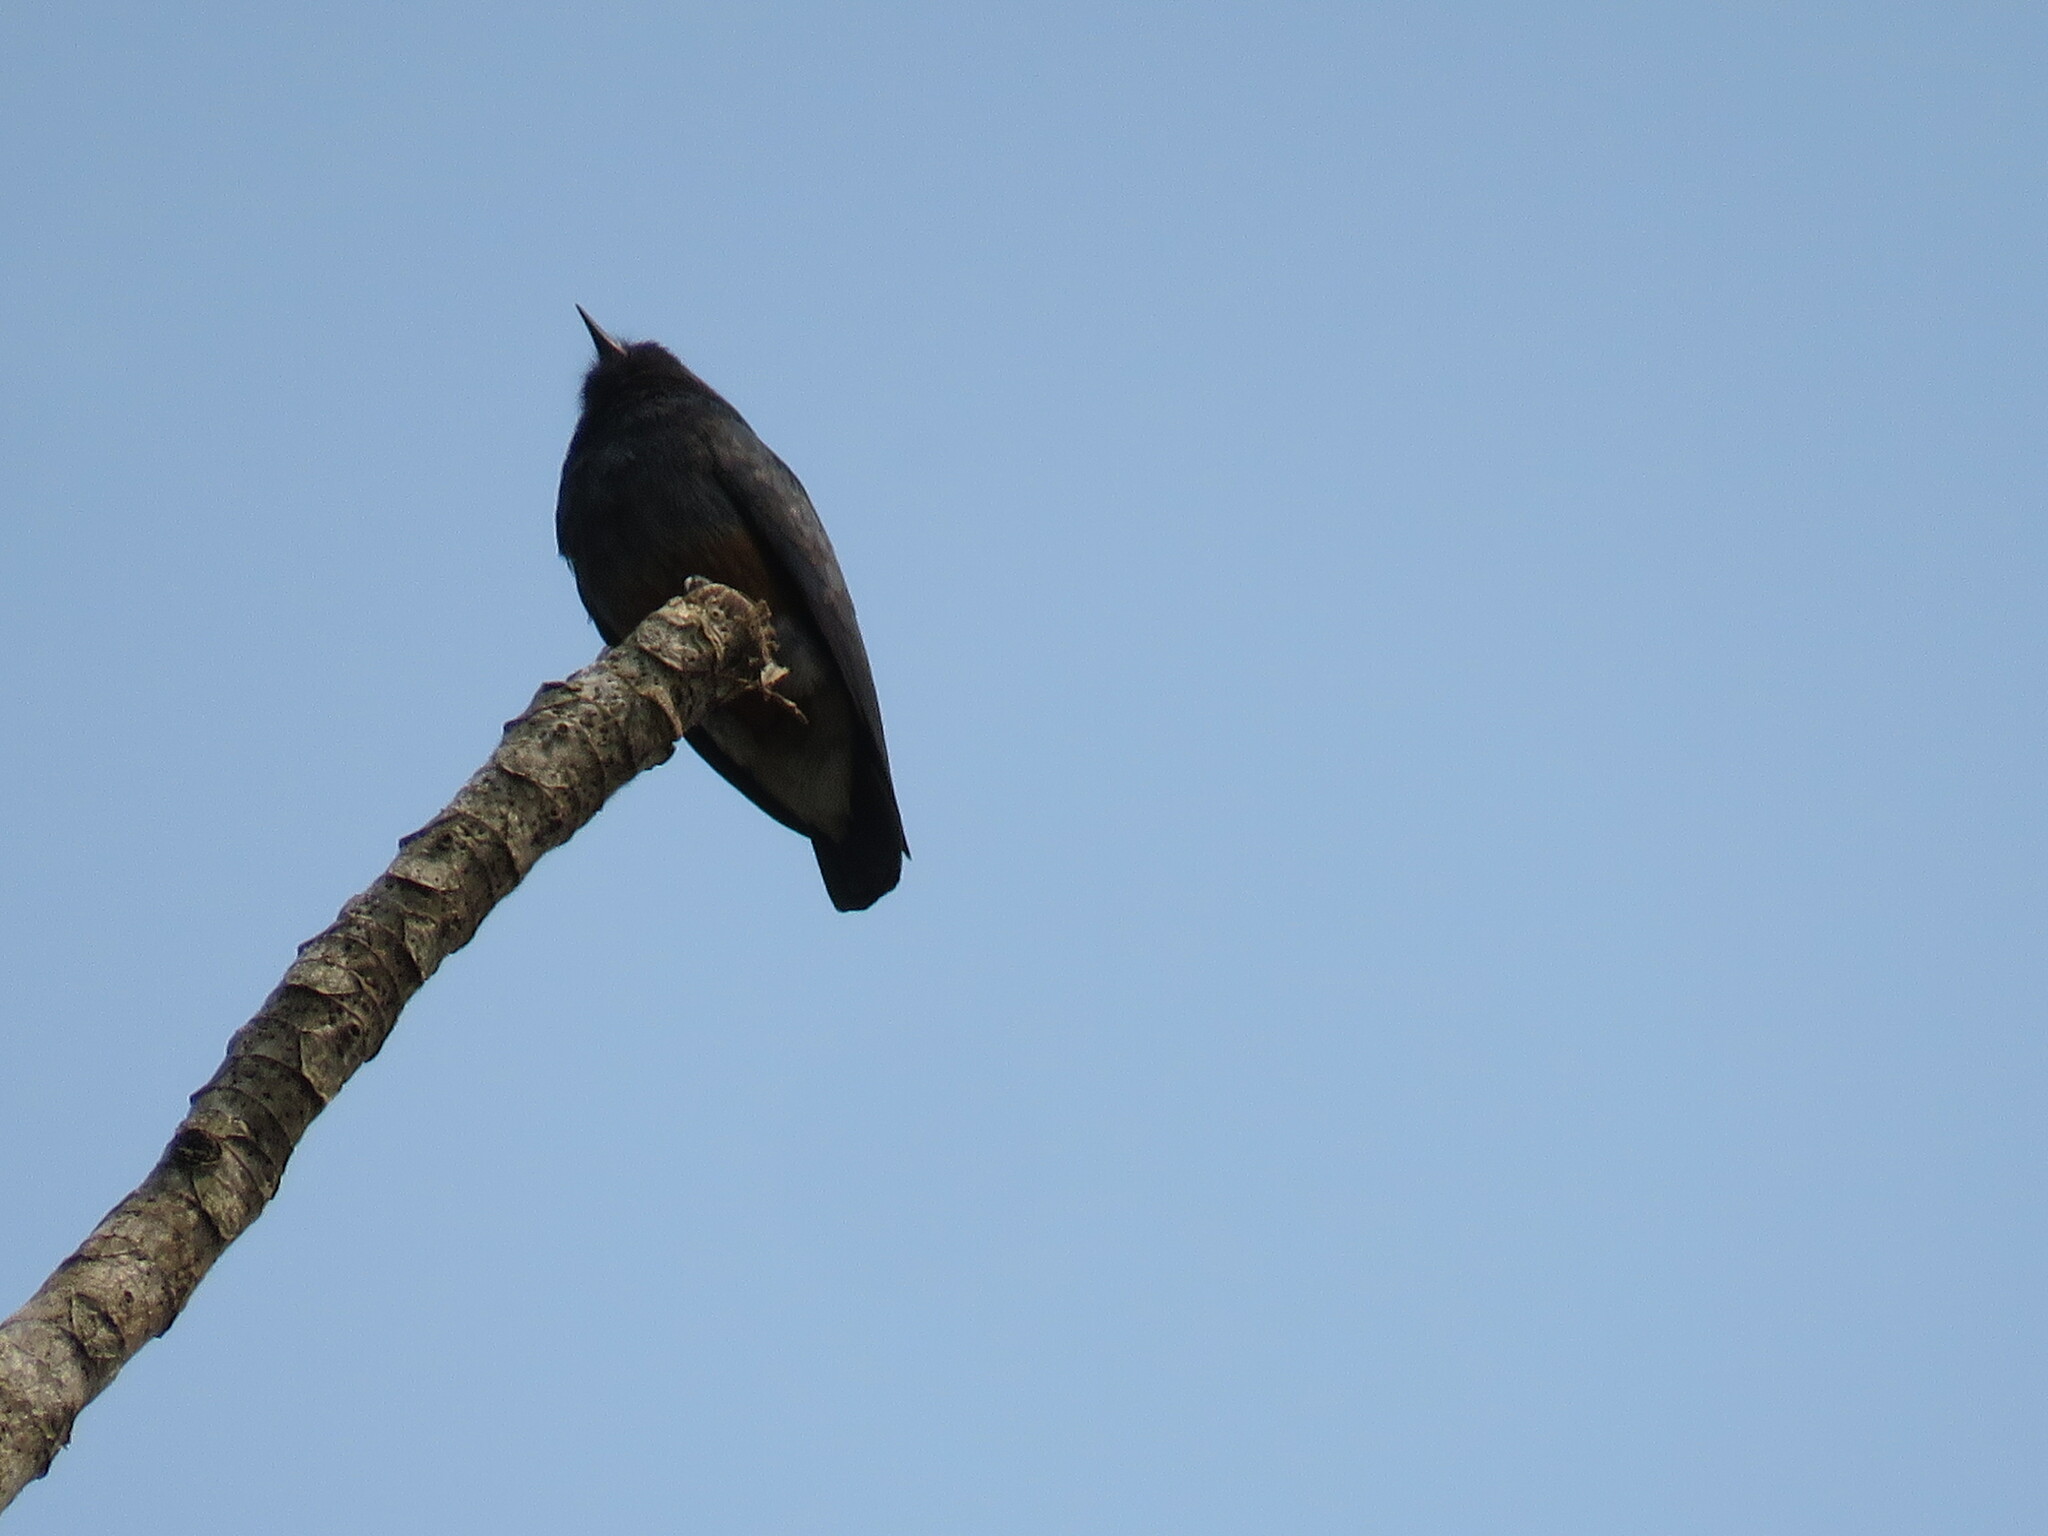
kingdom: Animalia
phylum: Chordata
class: Aves
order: Piciformes
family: Bucconidae
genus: Chelidoptera
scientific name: Chelidoptera tenebrosa
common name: Swallow-winged puffbird
